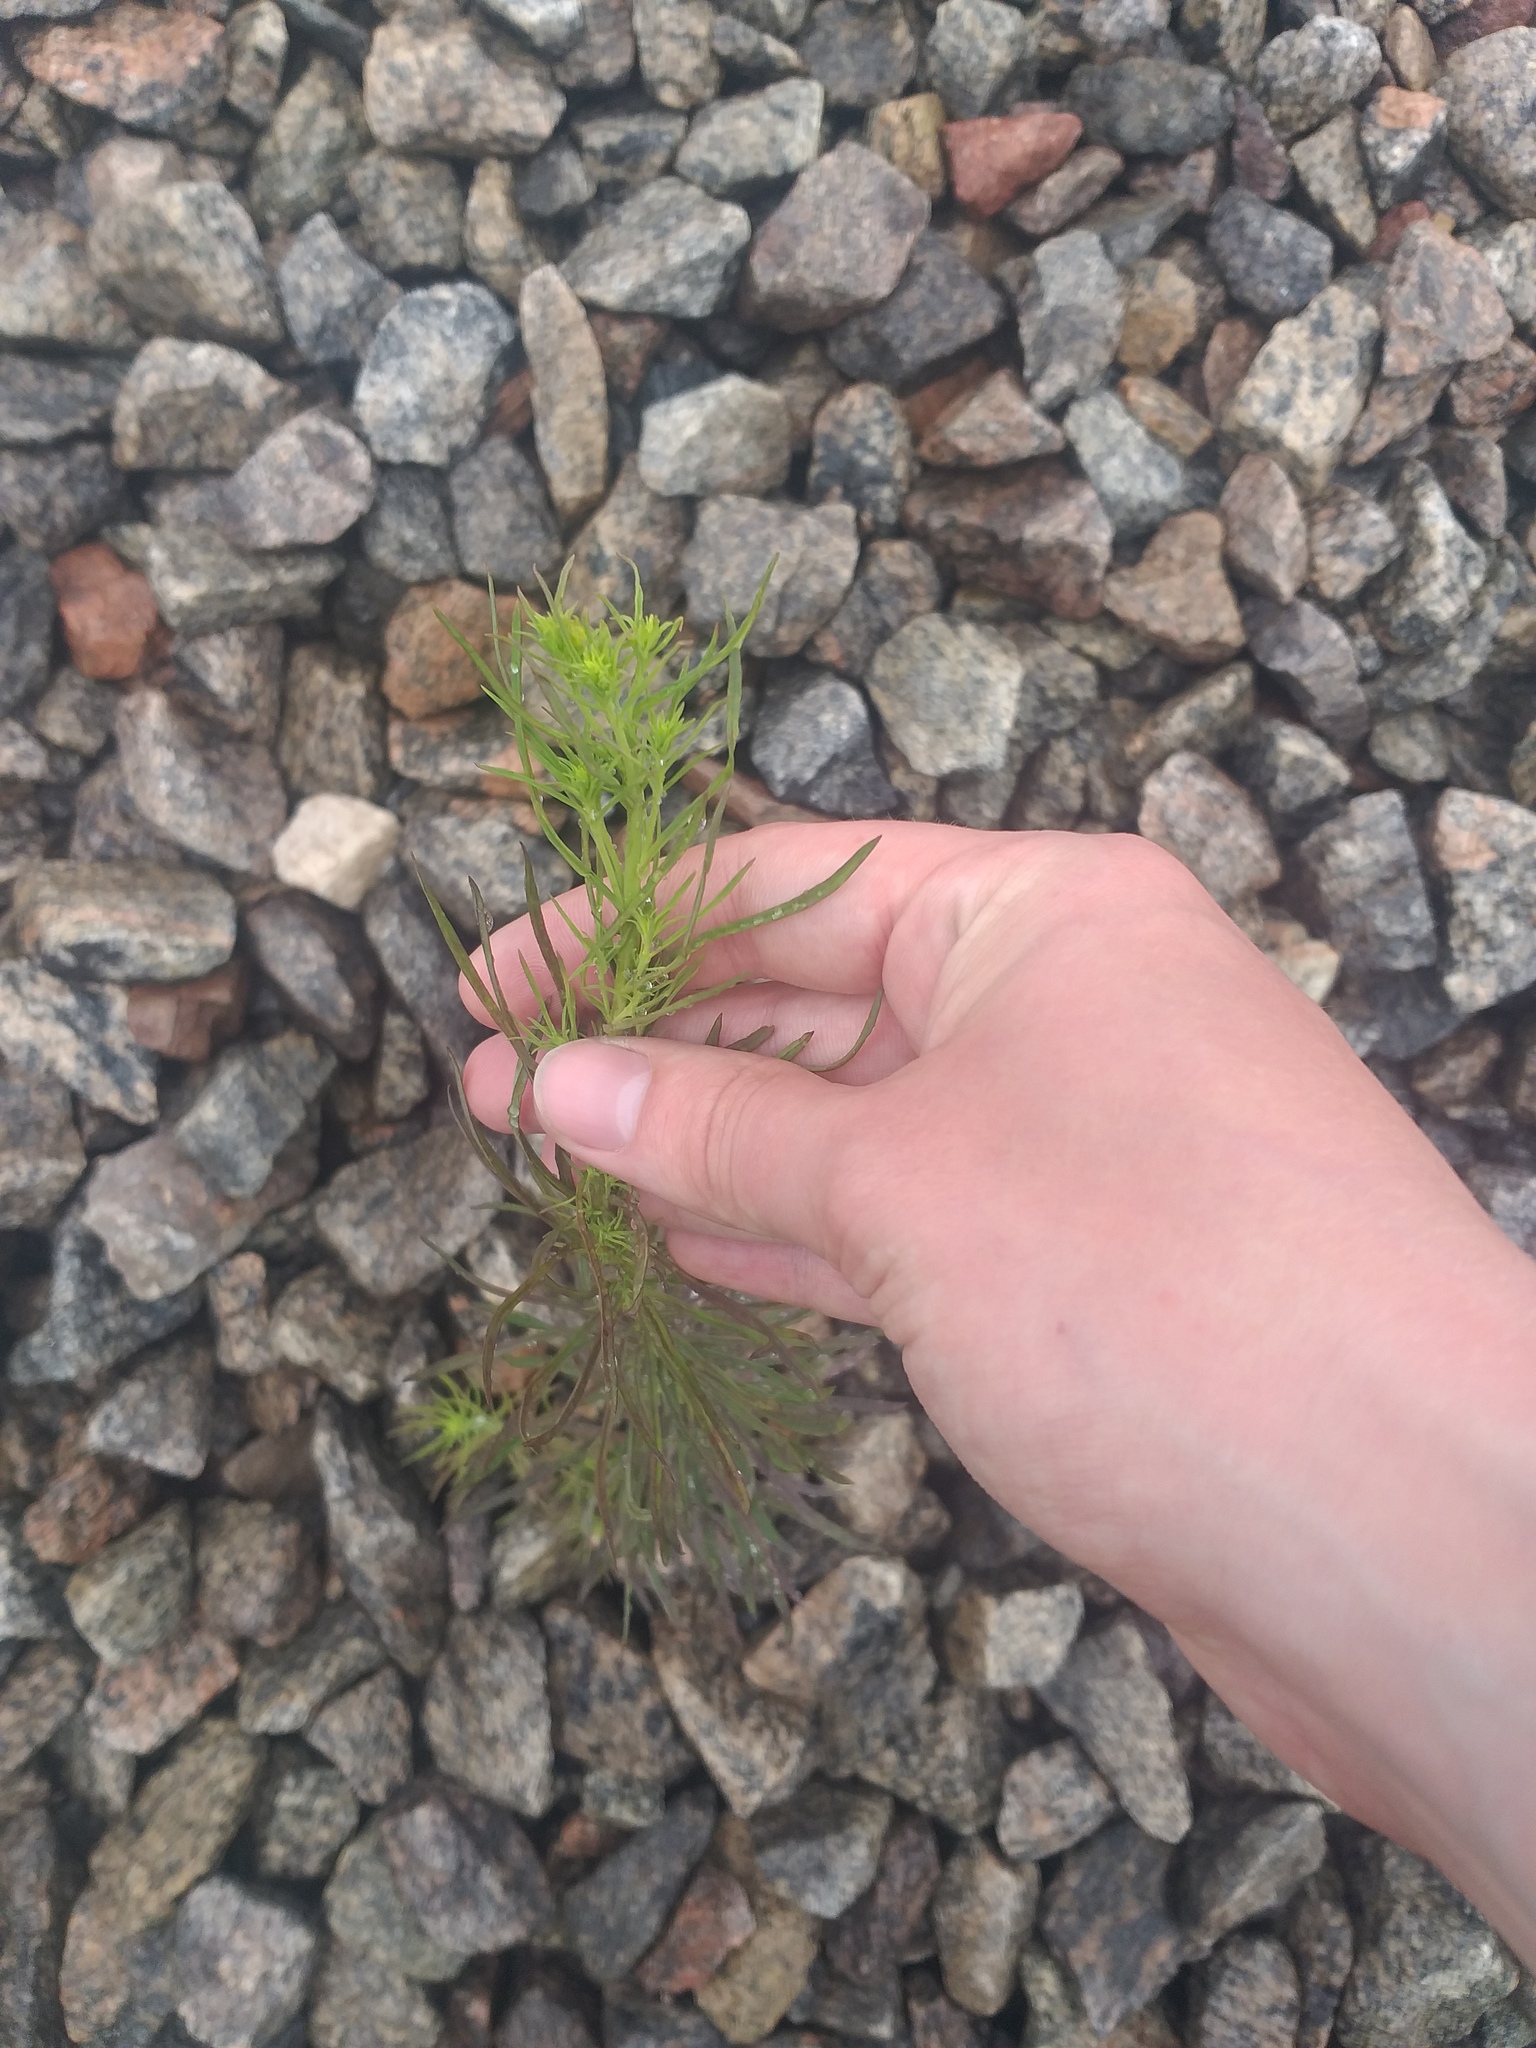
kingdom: Plantae
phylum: Tracheophyta
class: Magnoliopsida
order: Lamiales
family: Plantaginaceae
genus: Linaria
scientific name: Linaria vulgaris
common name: Butter and eggs
